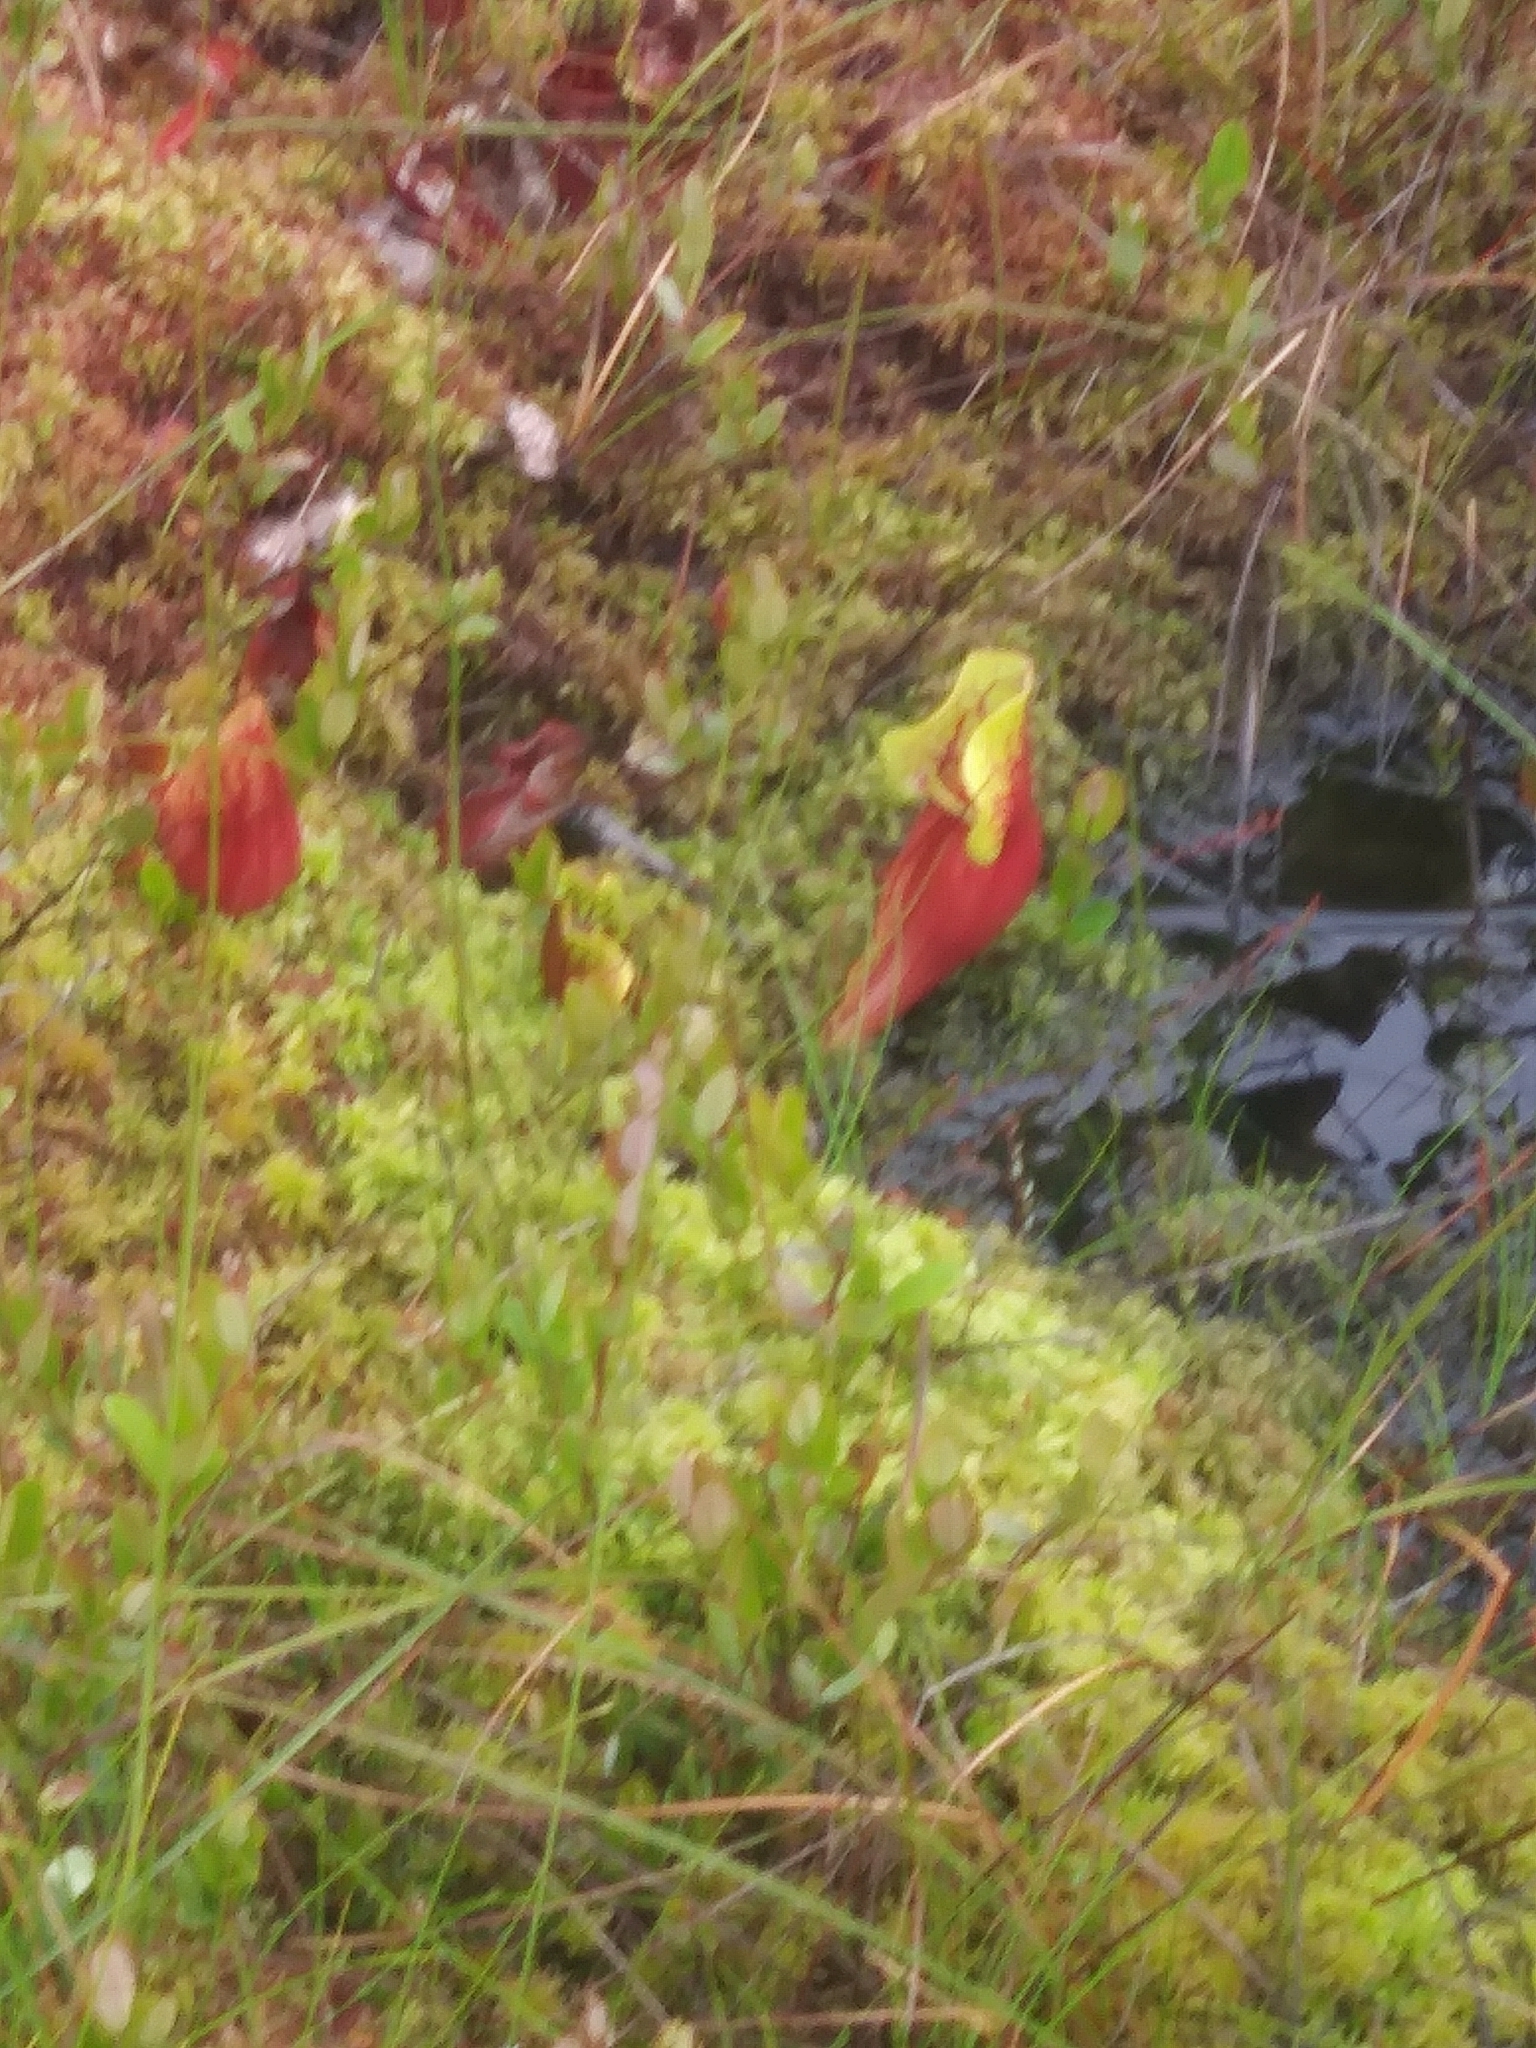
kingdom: Plantae
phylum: Tracheophyta
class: Magnoliopsida
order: Ericales
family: Sarraceniaceae
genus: Sarracenia
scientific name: Sarracenia purpurea
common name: Pitcherplant
